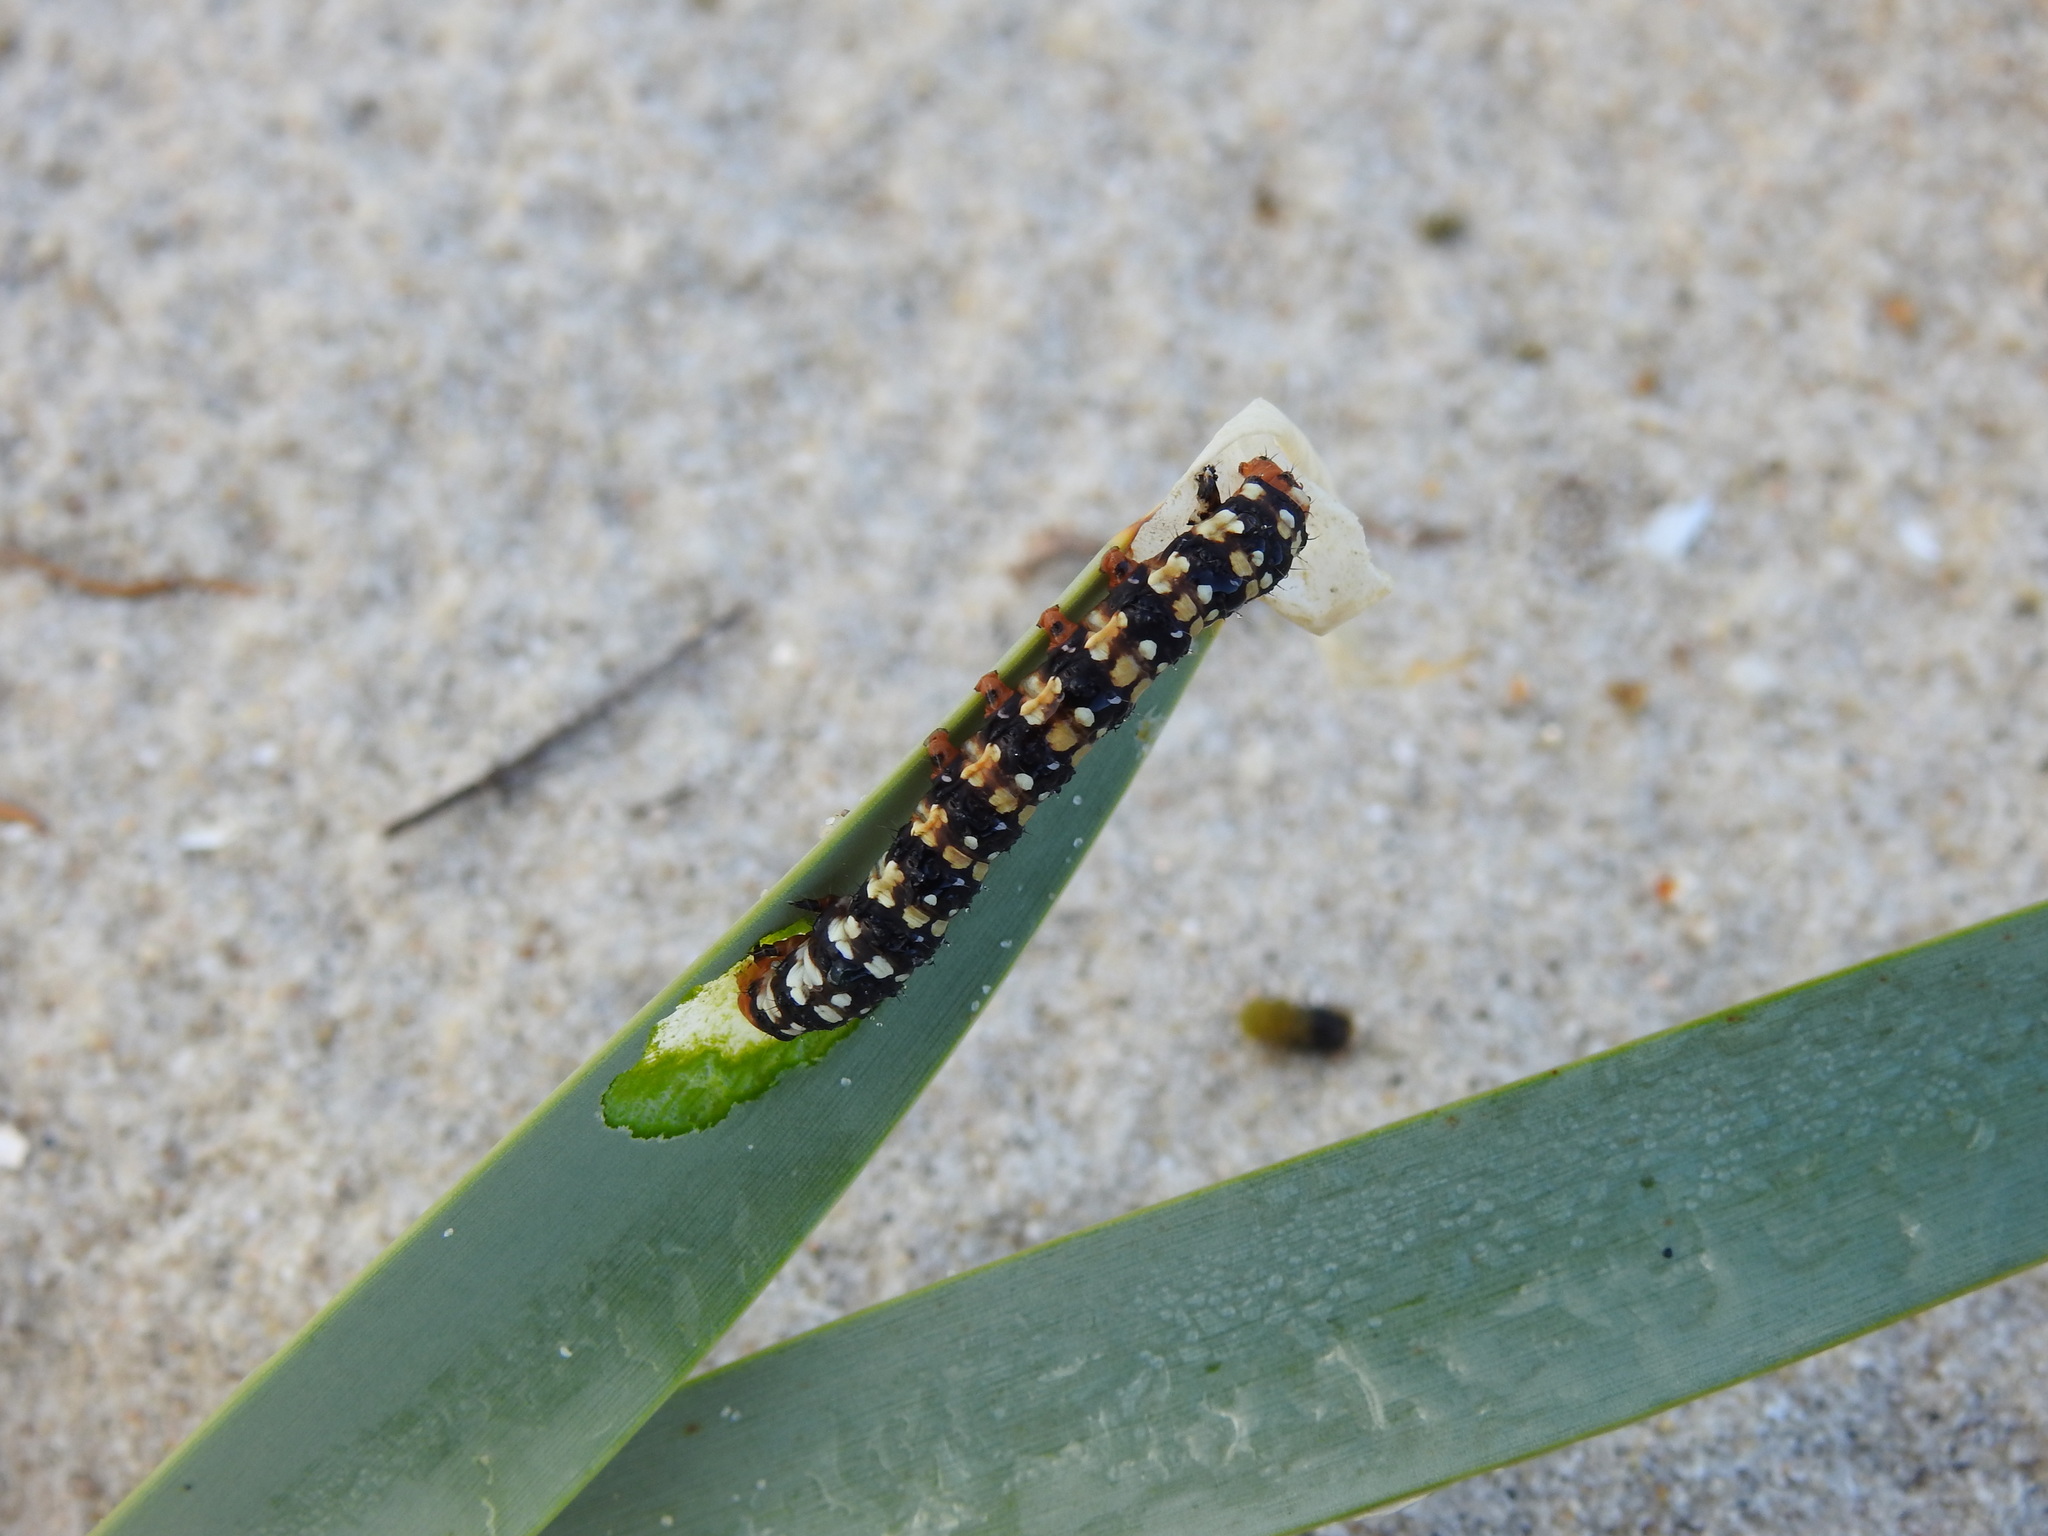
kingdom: Animalia
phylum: Arthropoda
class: Insecta
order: Lepidoptera
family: Noctuidae
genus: Brithys
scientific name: Brithys crini
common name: Kew arches
